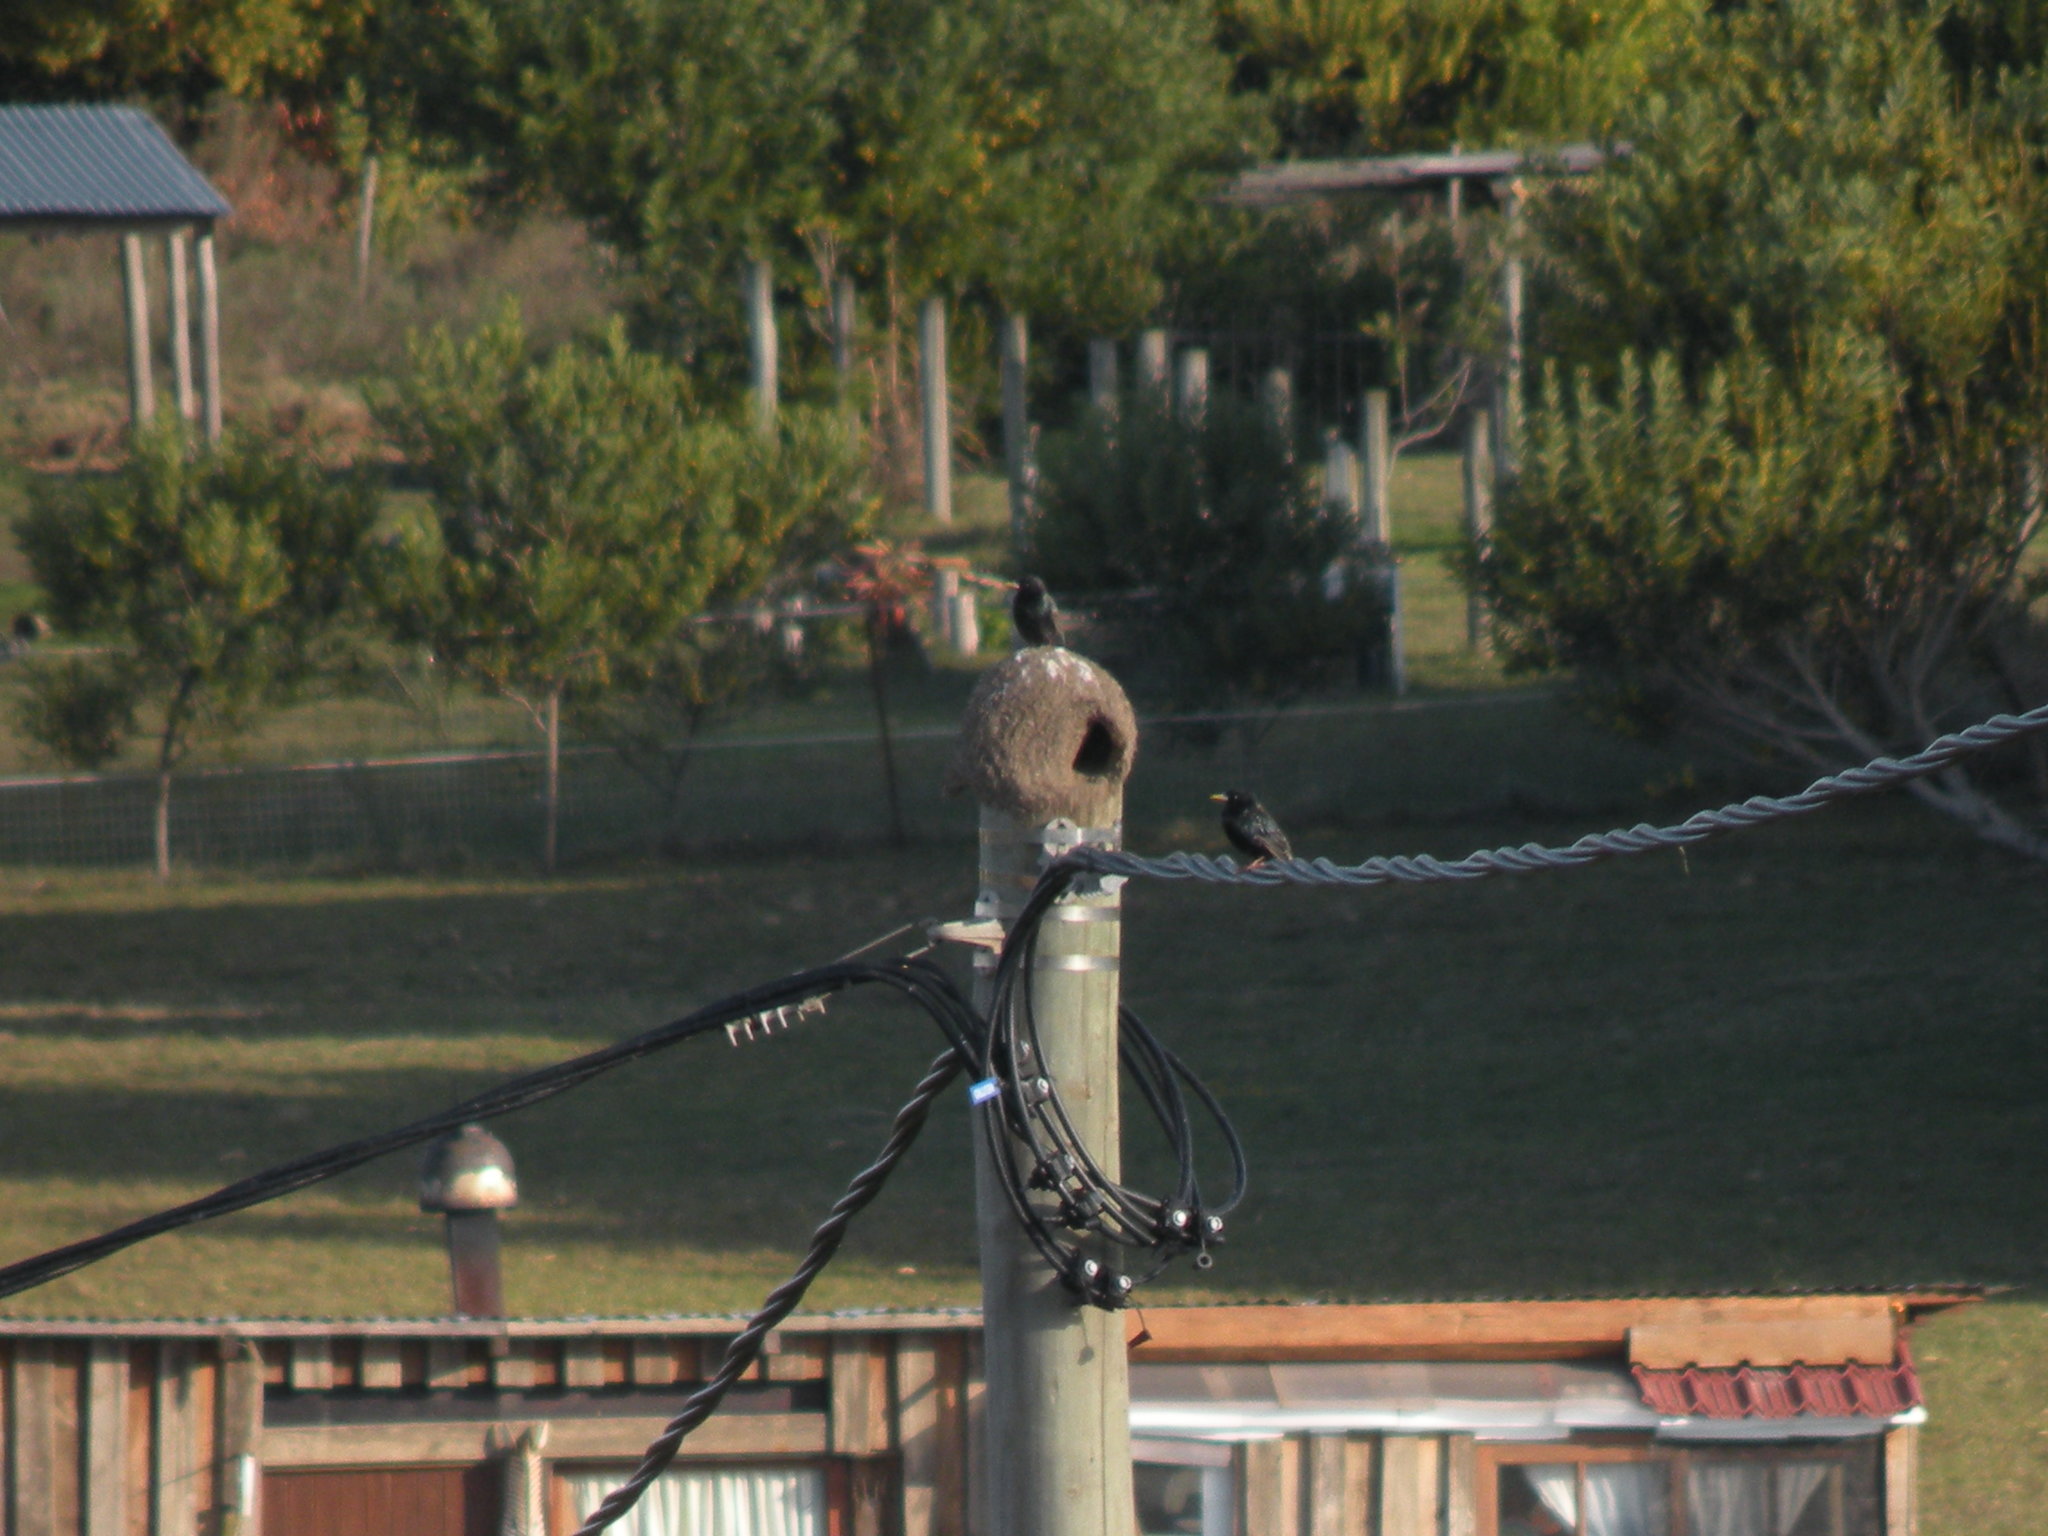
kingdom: Animalia
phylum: Chordata
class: Aves
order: Passeriformes
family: Sturnidae
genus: Sturnus
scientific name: Sturnus vulgaris
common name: Common starling
